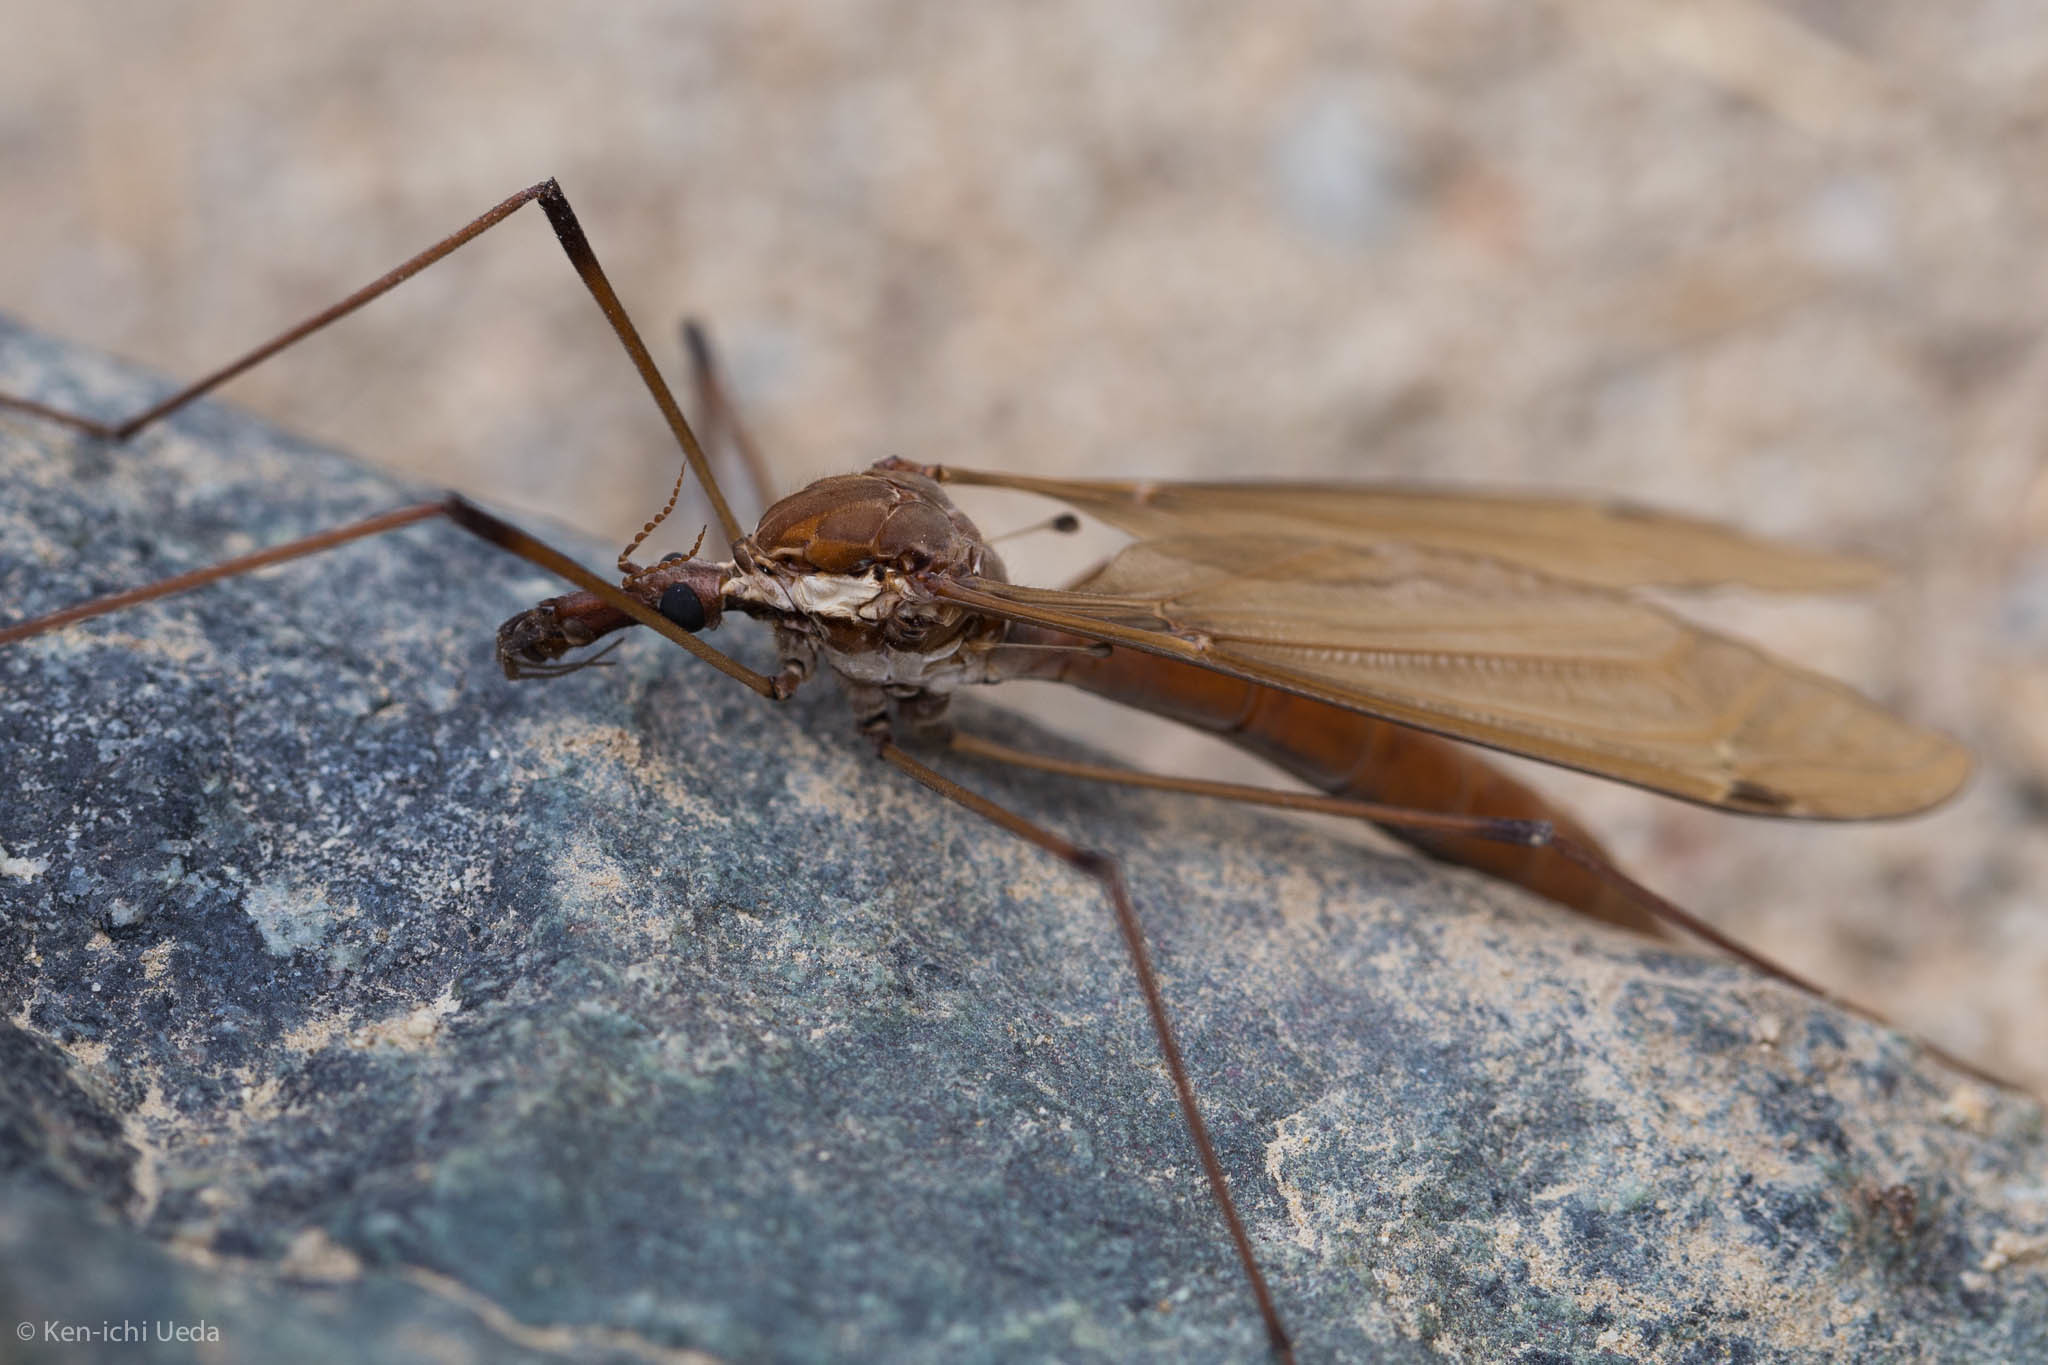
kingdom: Animalia
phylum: Arthropoda
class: Insecta
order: Diptera
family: Tipulidae
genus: Holorusia
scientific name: Holorusia hespera
